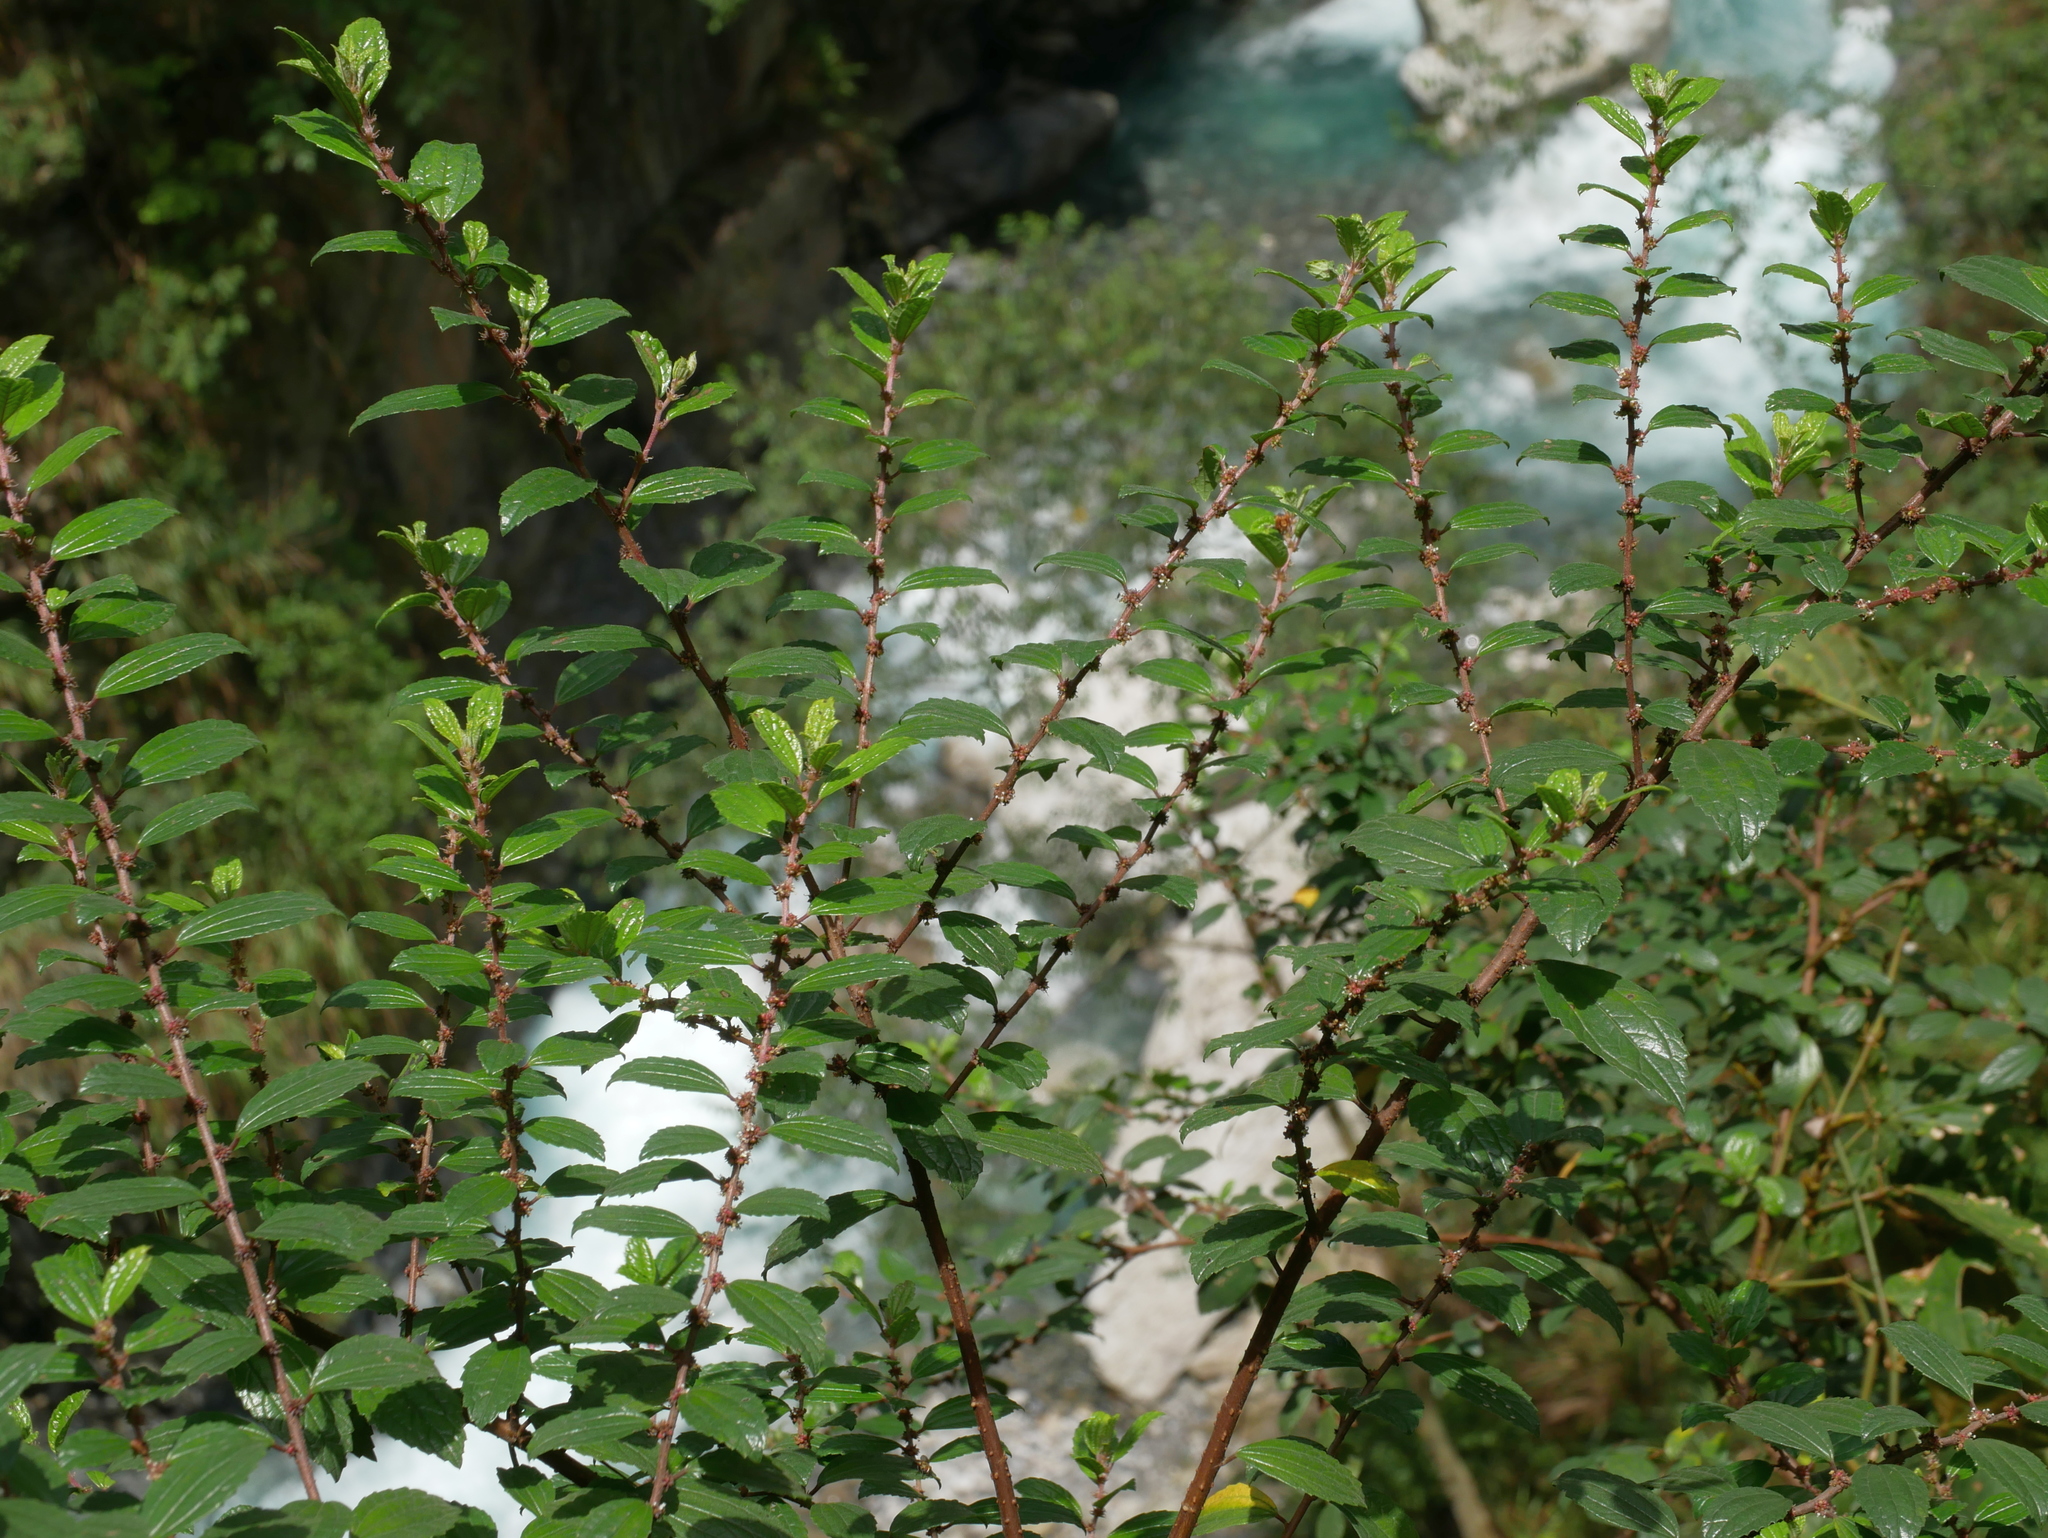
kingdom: Plantae
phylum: Tracheophyta
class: Magnoliopsida
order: Rosales
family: Urticaceae
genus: Pouzolzia
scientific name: Pouzolzia sanguinea
